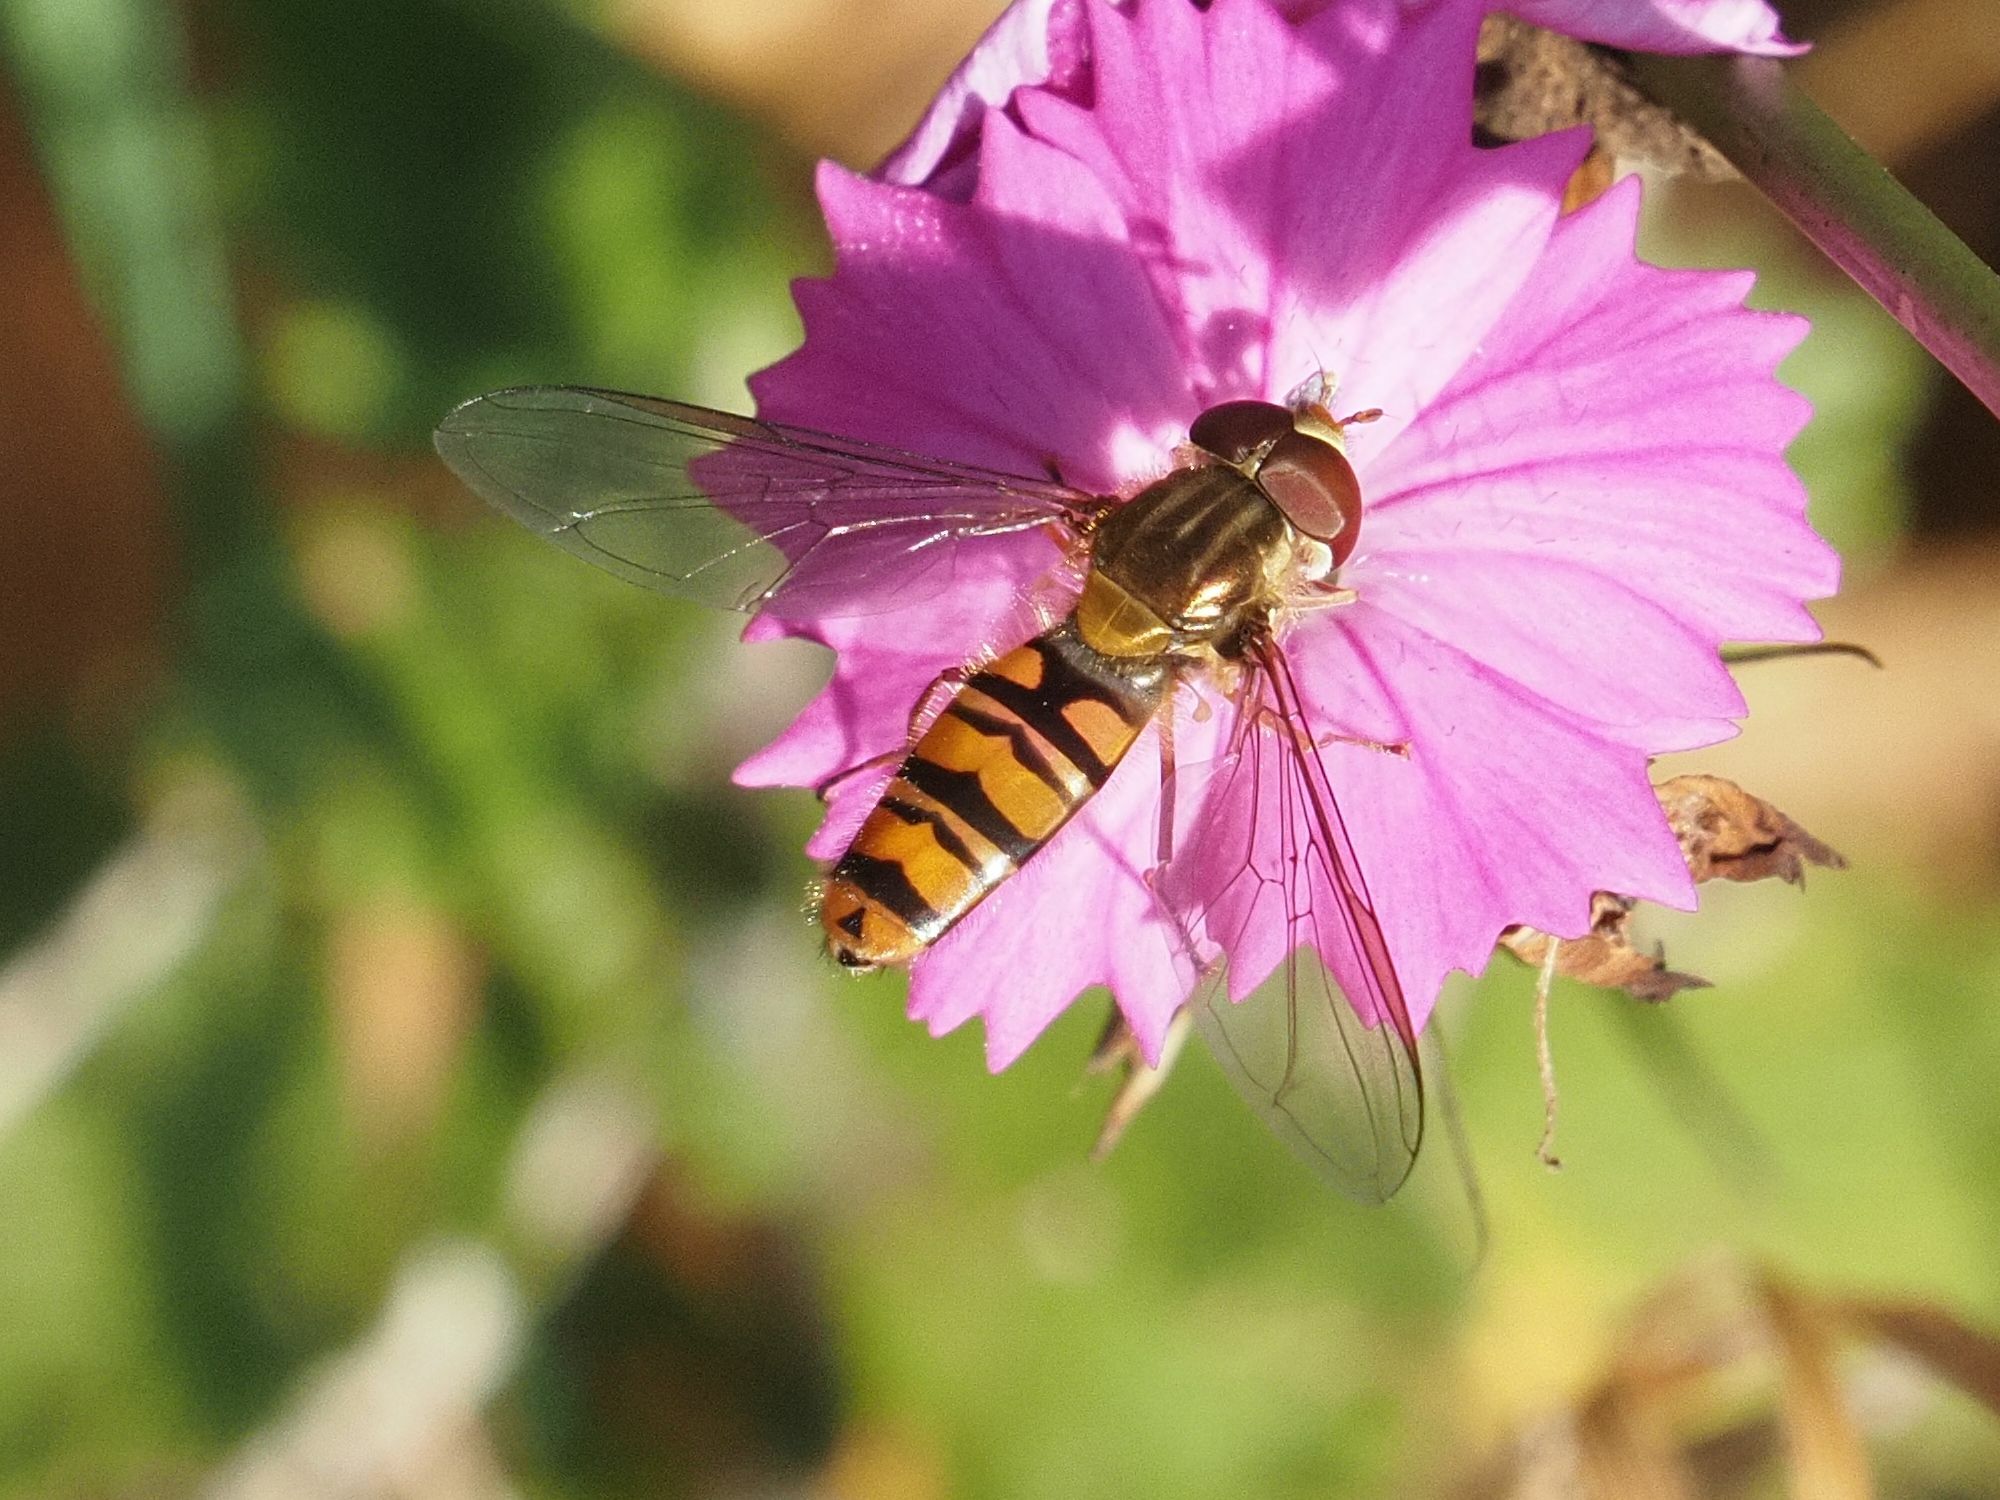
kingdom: Animalia
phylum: Arthropoda
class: Insecta
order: Diptera
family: Syrphidae
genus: Episyrphus
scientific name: Episyrphus balteatus
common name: Marmalade hoverfly
